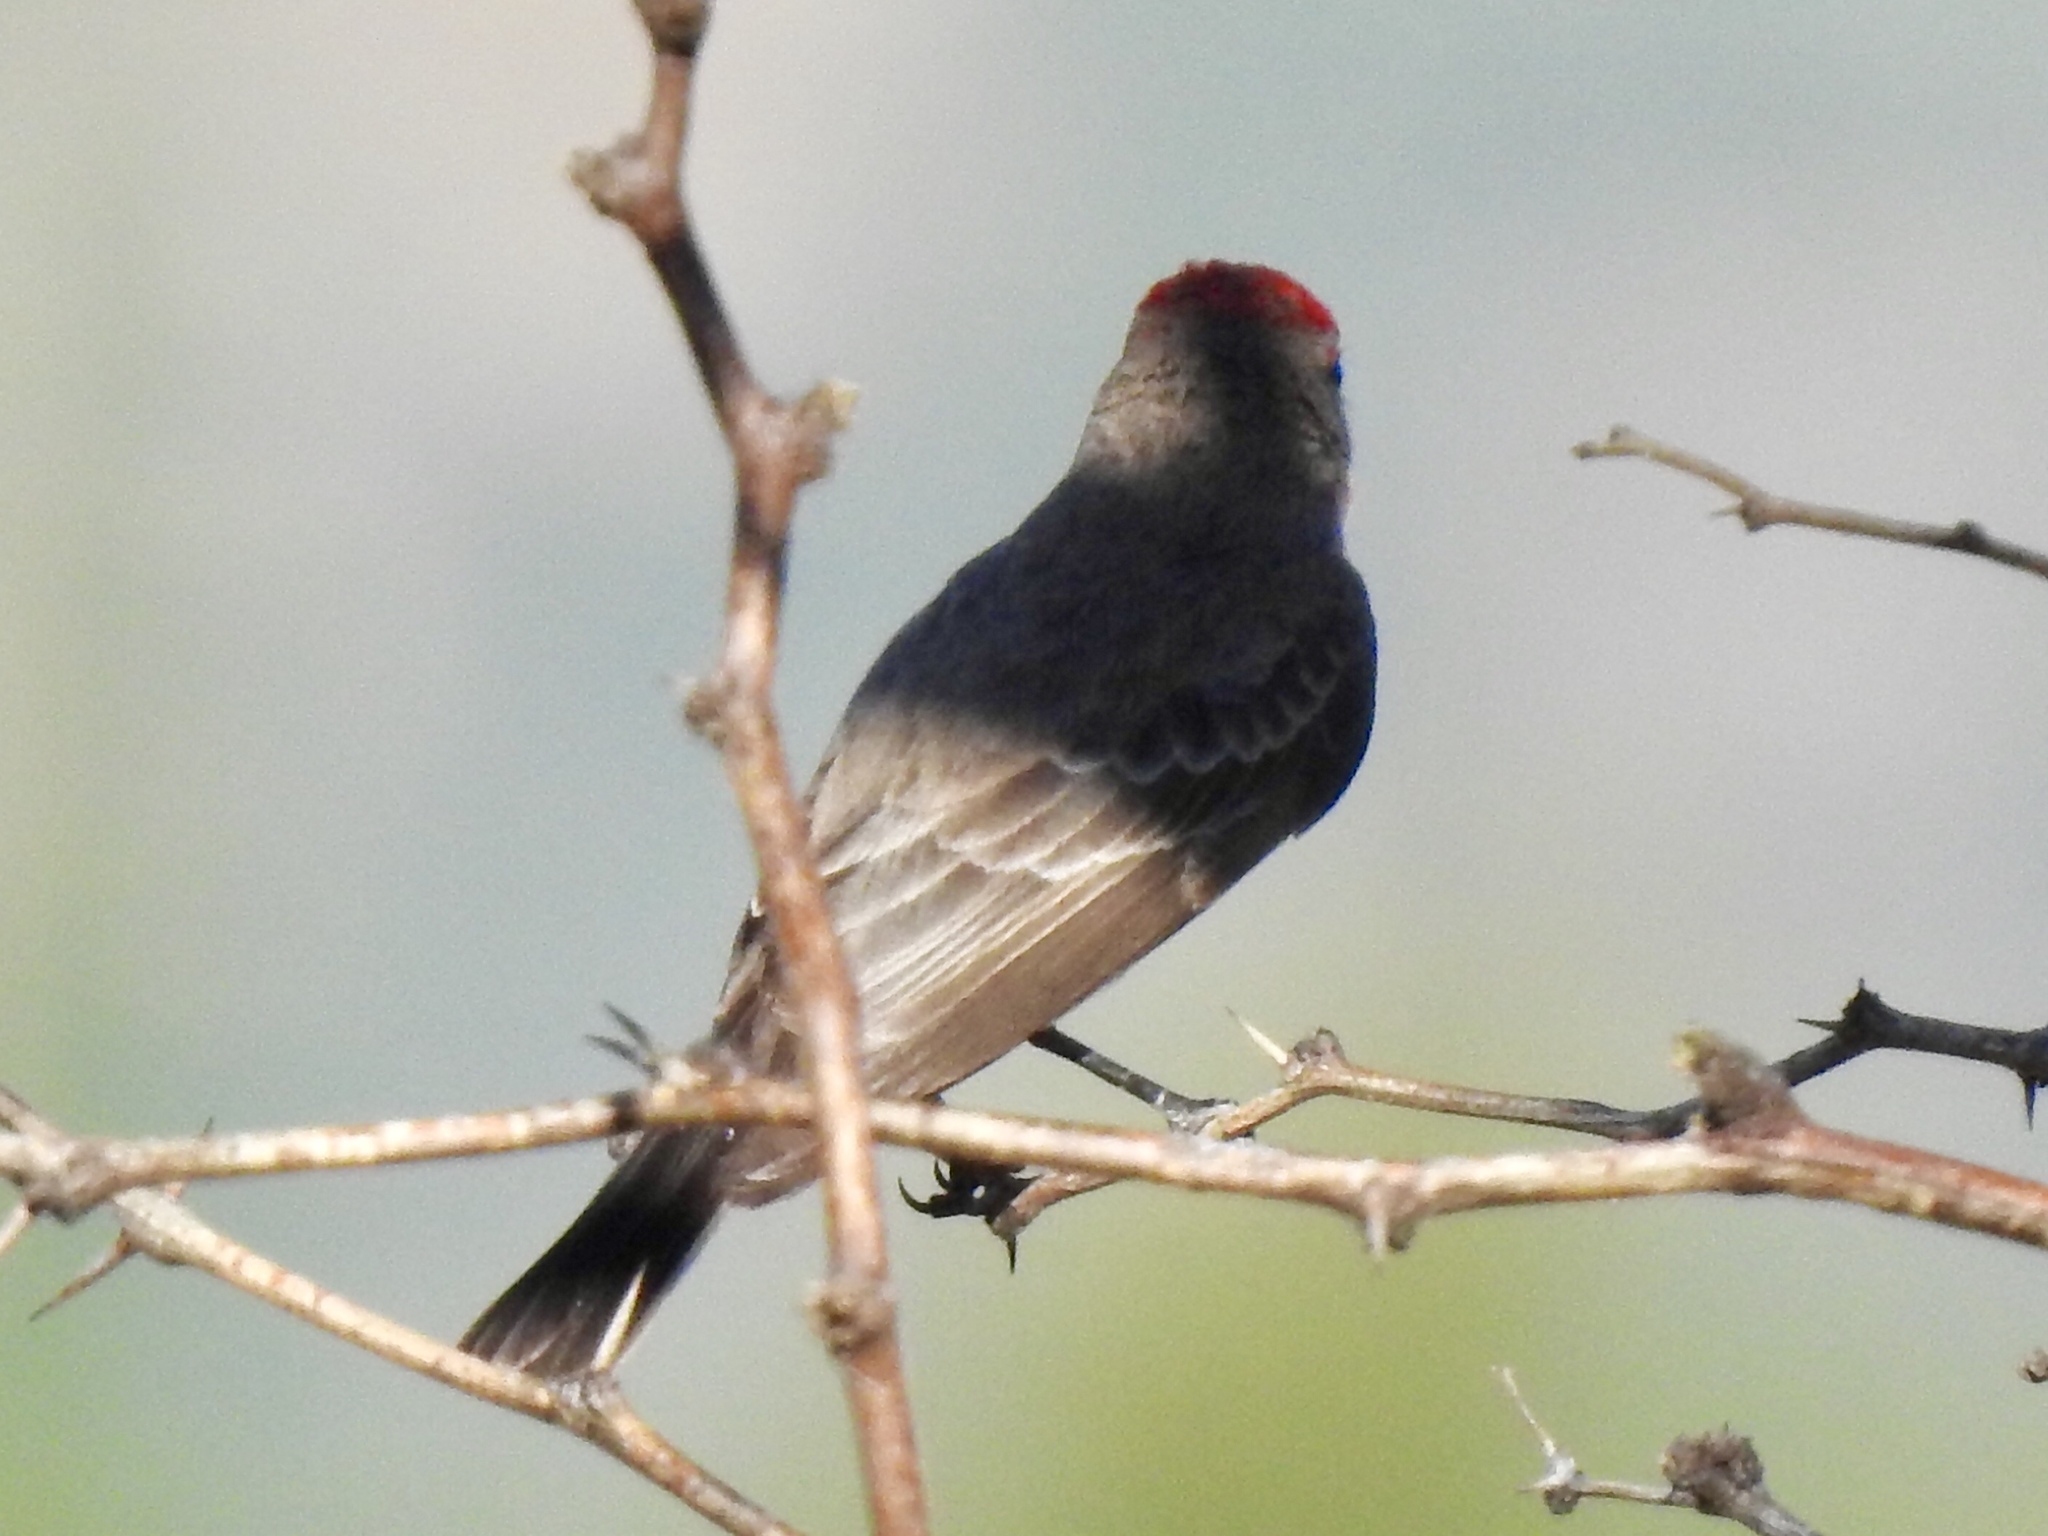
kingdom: Animalia
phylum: Chordata
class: Aves
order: Passeriformes
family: Tyrannidae
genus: Pyrocephalus
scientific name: Pyrocephalus rubinus
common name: Vermilion flycatcher
